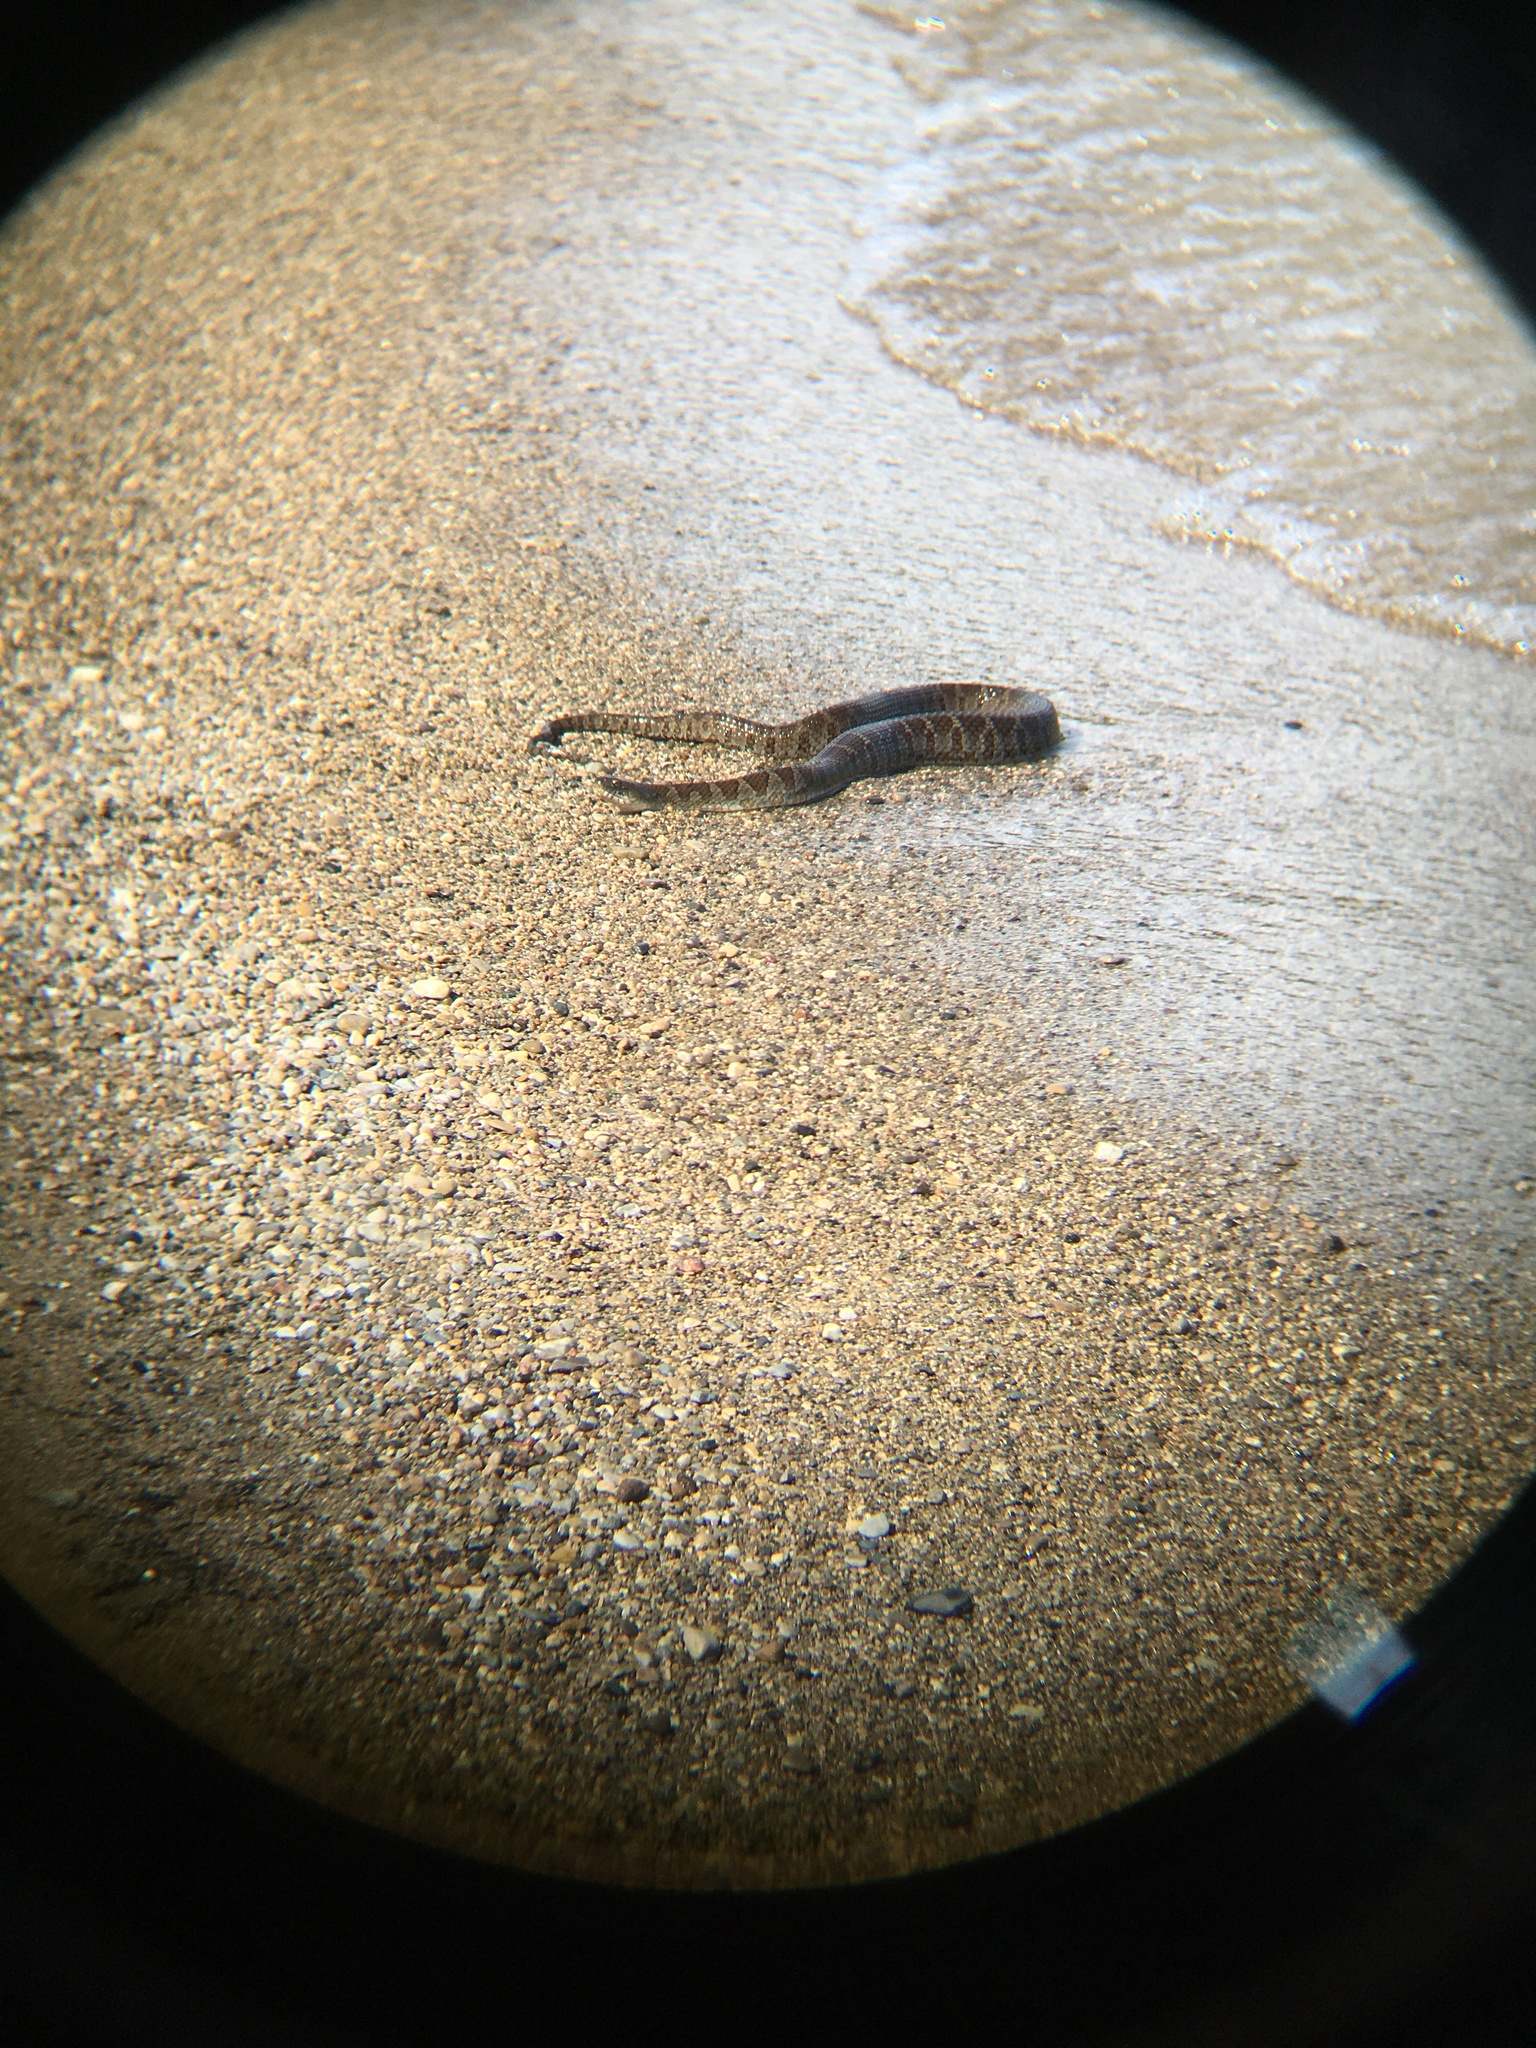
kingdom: Animalia
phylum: Chordata
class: Squamata
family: Colubridae
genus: Nerodia
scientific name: Nerodia sipedon
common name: Northern water snake
